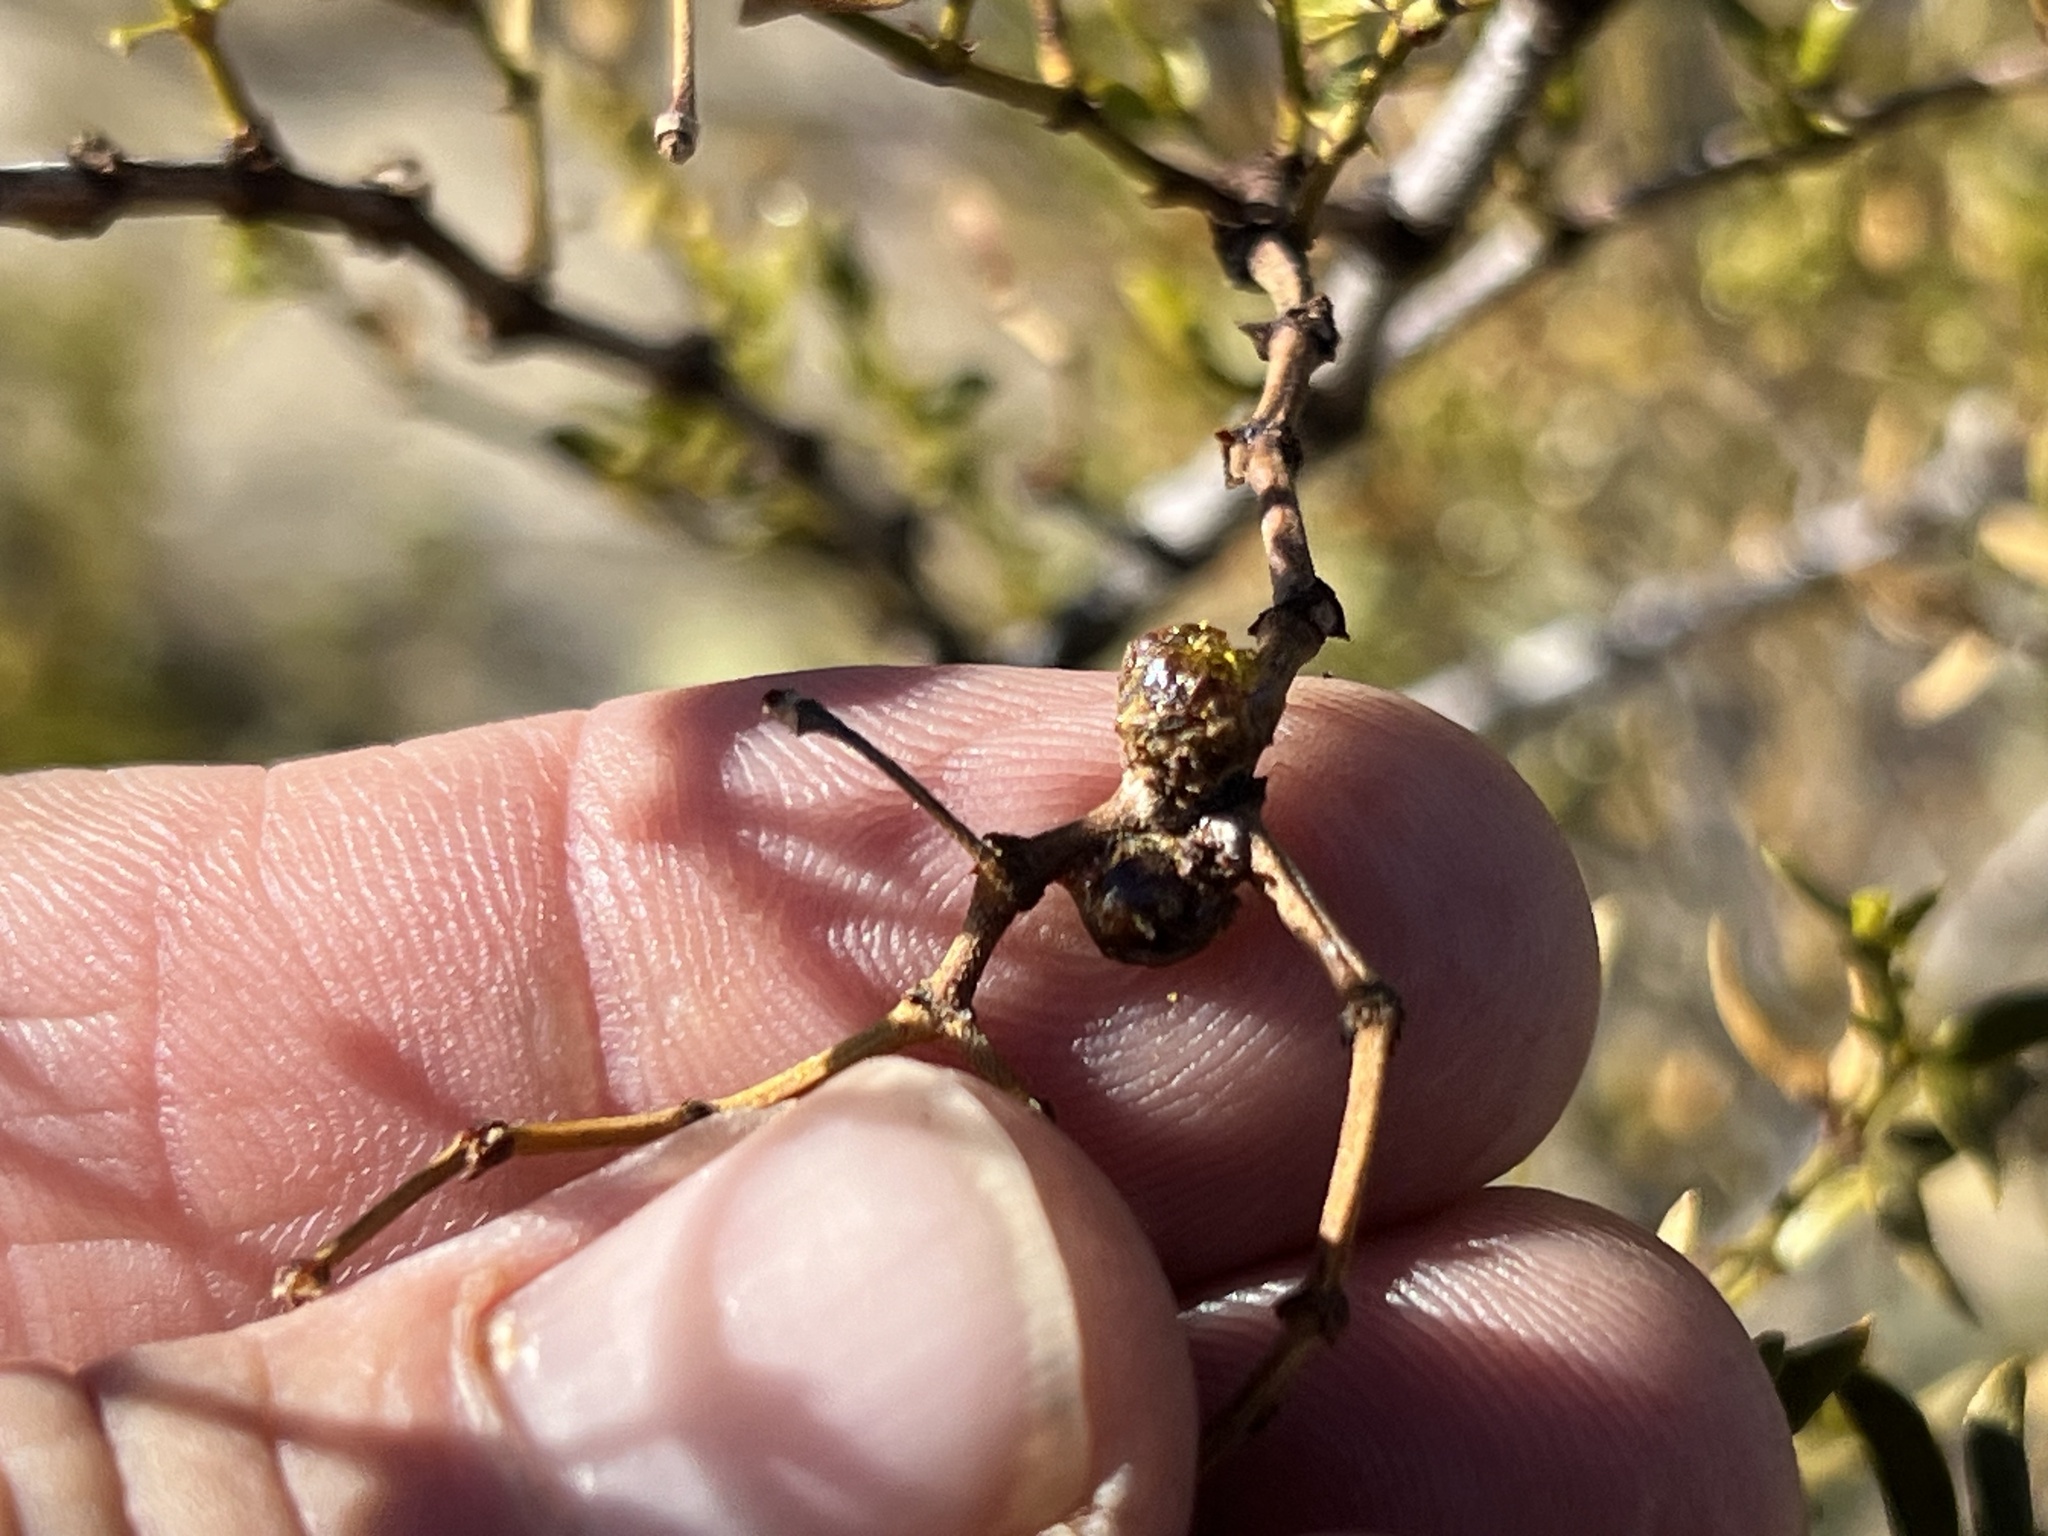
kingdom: Animalia
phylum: Arthropoda
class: Insecta
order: Diptera
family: Cecidomyiidae
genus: Asphondylia
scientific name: Asphondylia resinosa
